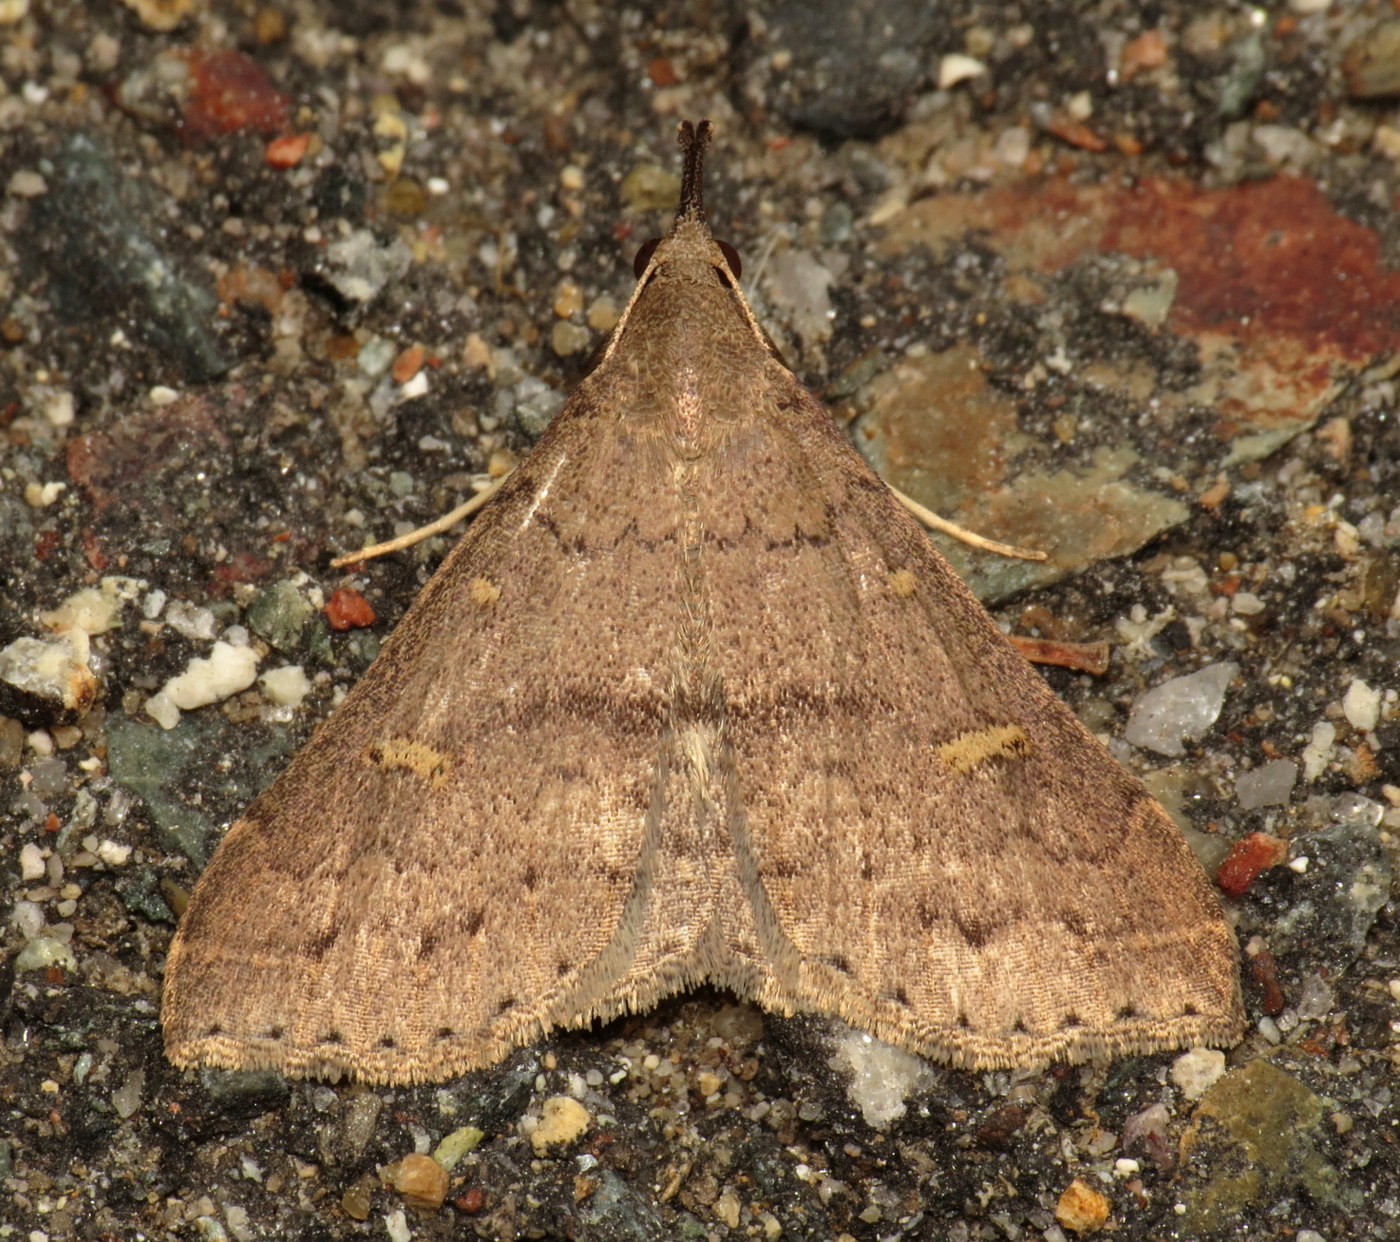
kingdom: Animalia
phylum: Arthropoda
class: Insecta
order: Lepidoptera
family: Erebidae
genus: Renia
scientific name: Renia adspergillus
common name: Speckled renia moth
